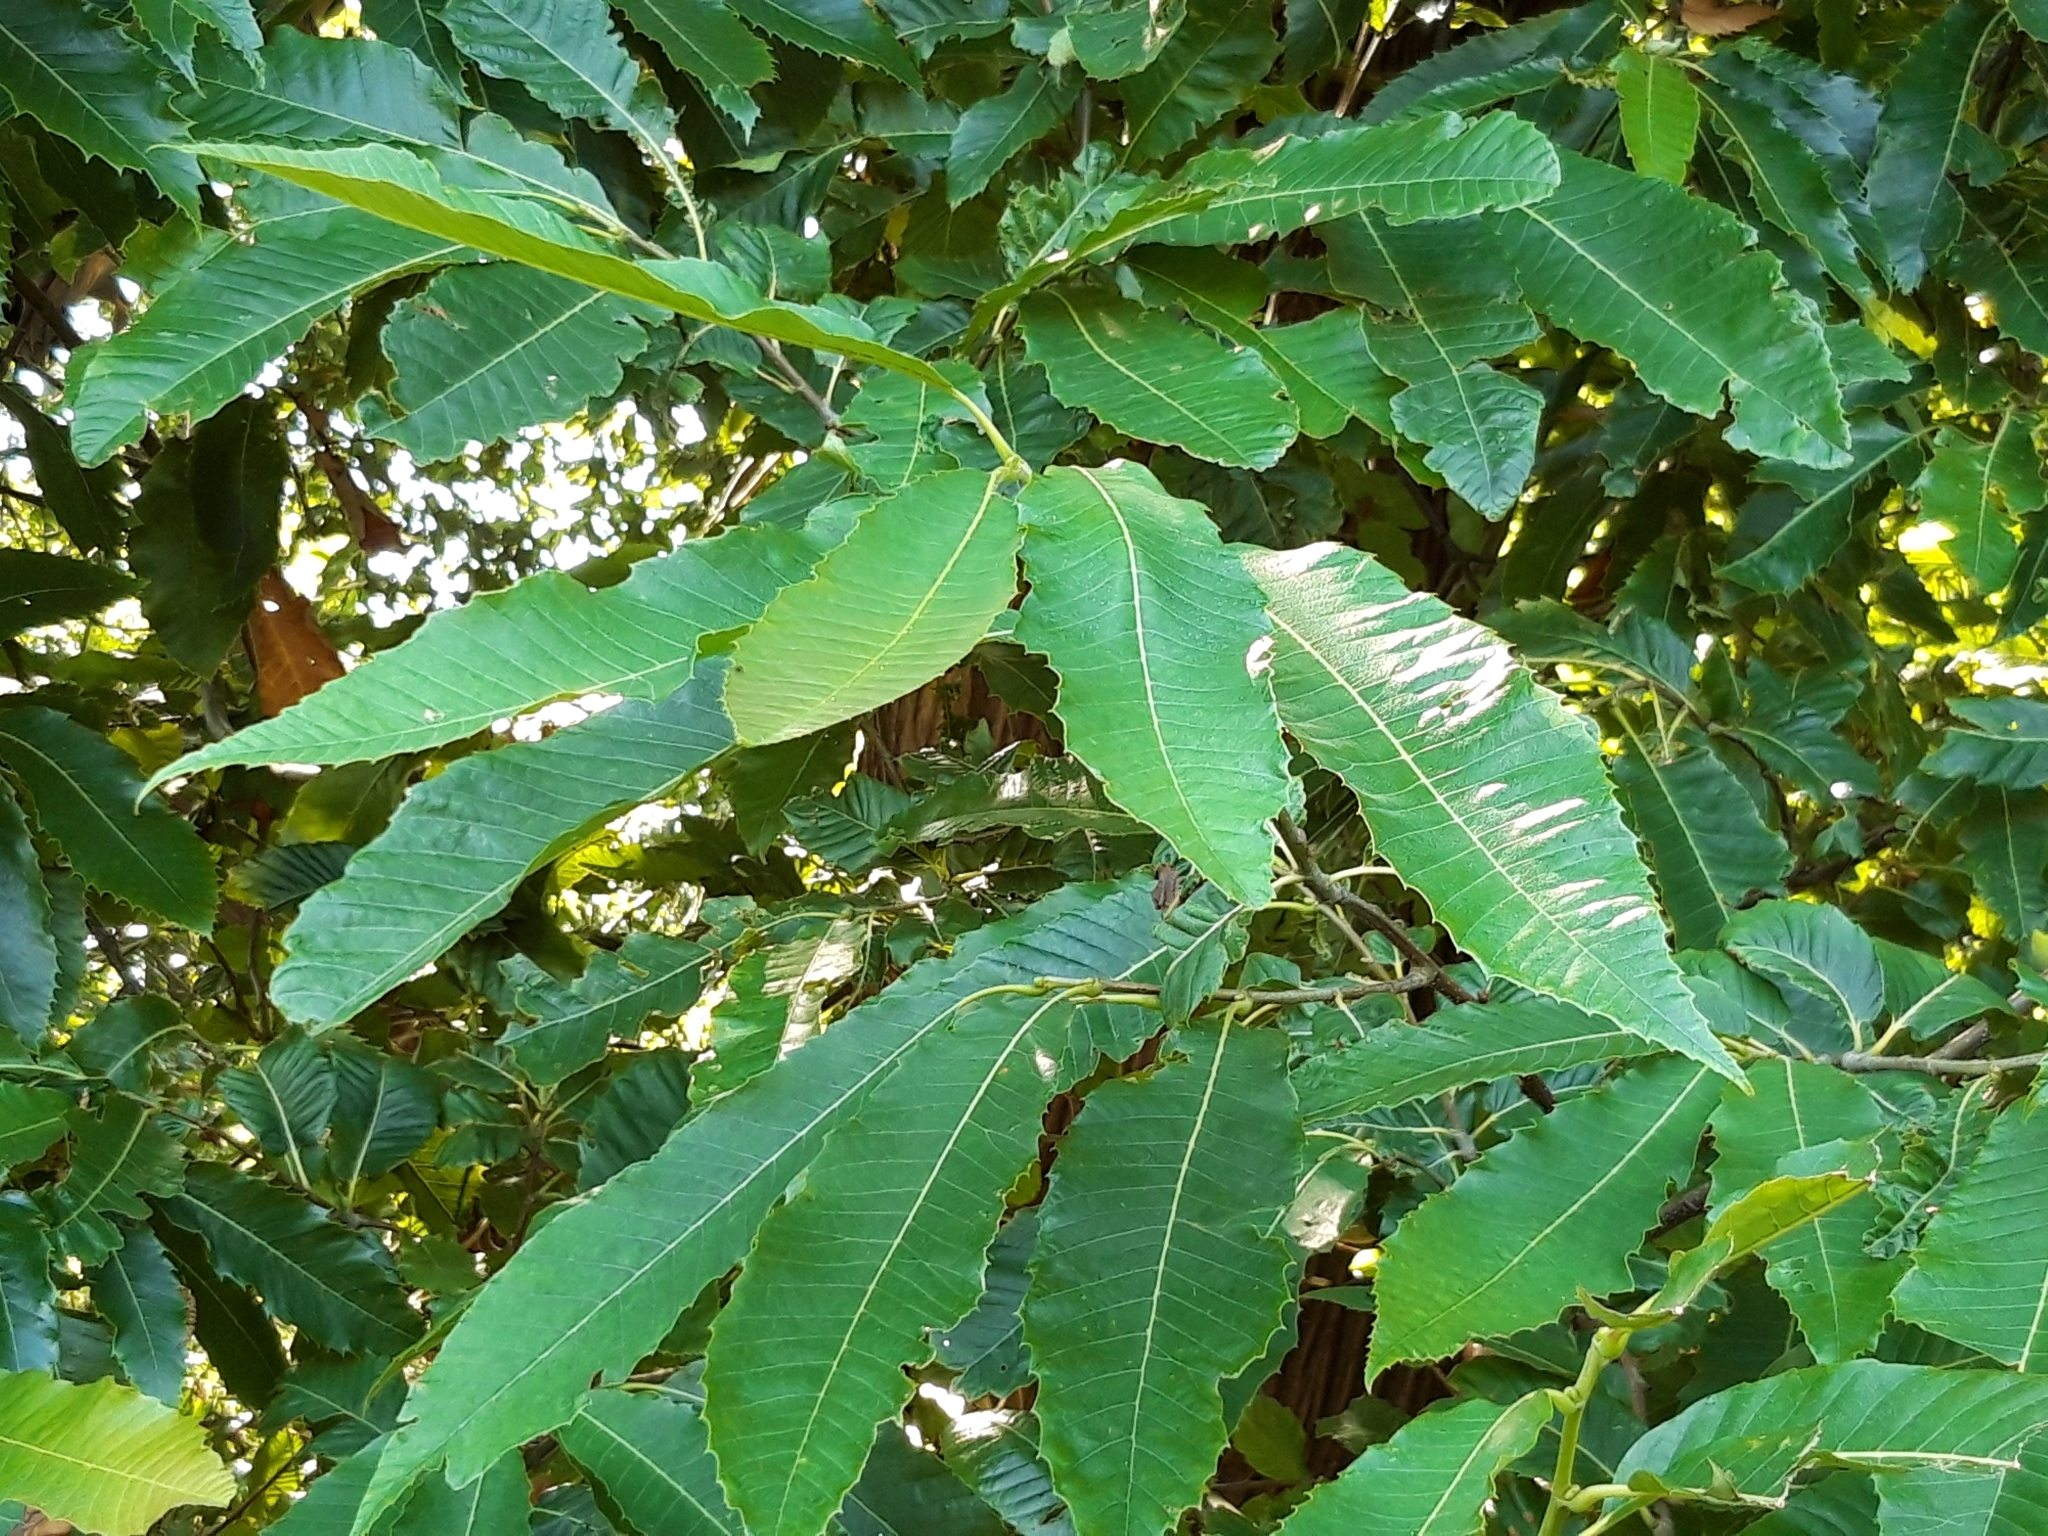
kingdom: Plantae
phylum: Tracheophyta
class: Magnoliopsida
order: Fagales
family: Fagaceae
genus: Castanea
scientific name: Castanea sativa
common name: Sweet chestnut
